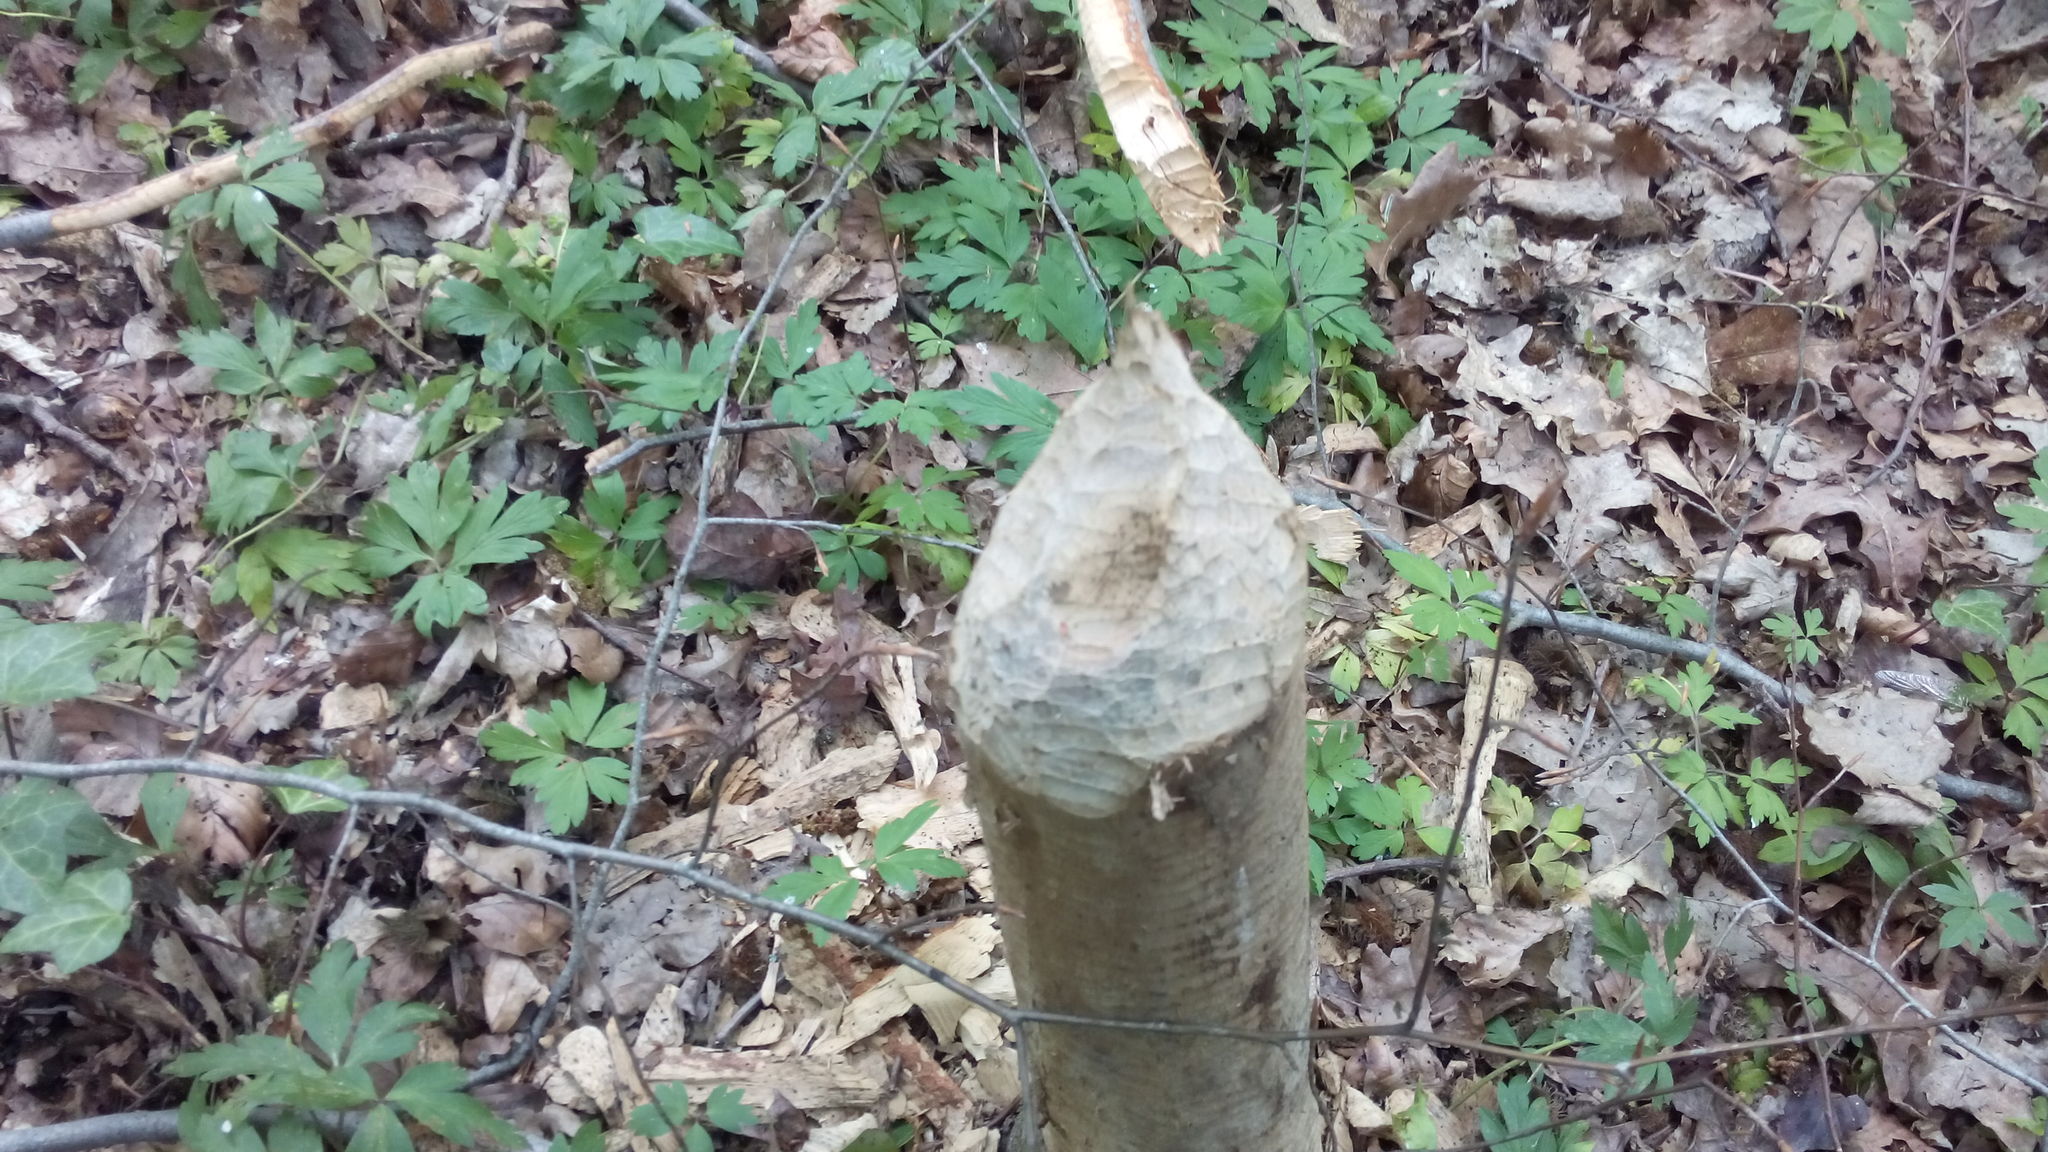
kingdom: Animalia
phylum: Chordata
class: Mammalia
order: Rodentia
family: Castoridae
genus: Castor
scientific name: Castor fiber
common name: Eurasian beaver
